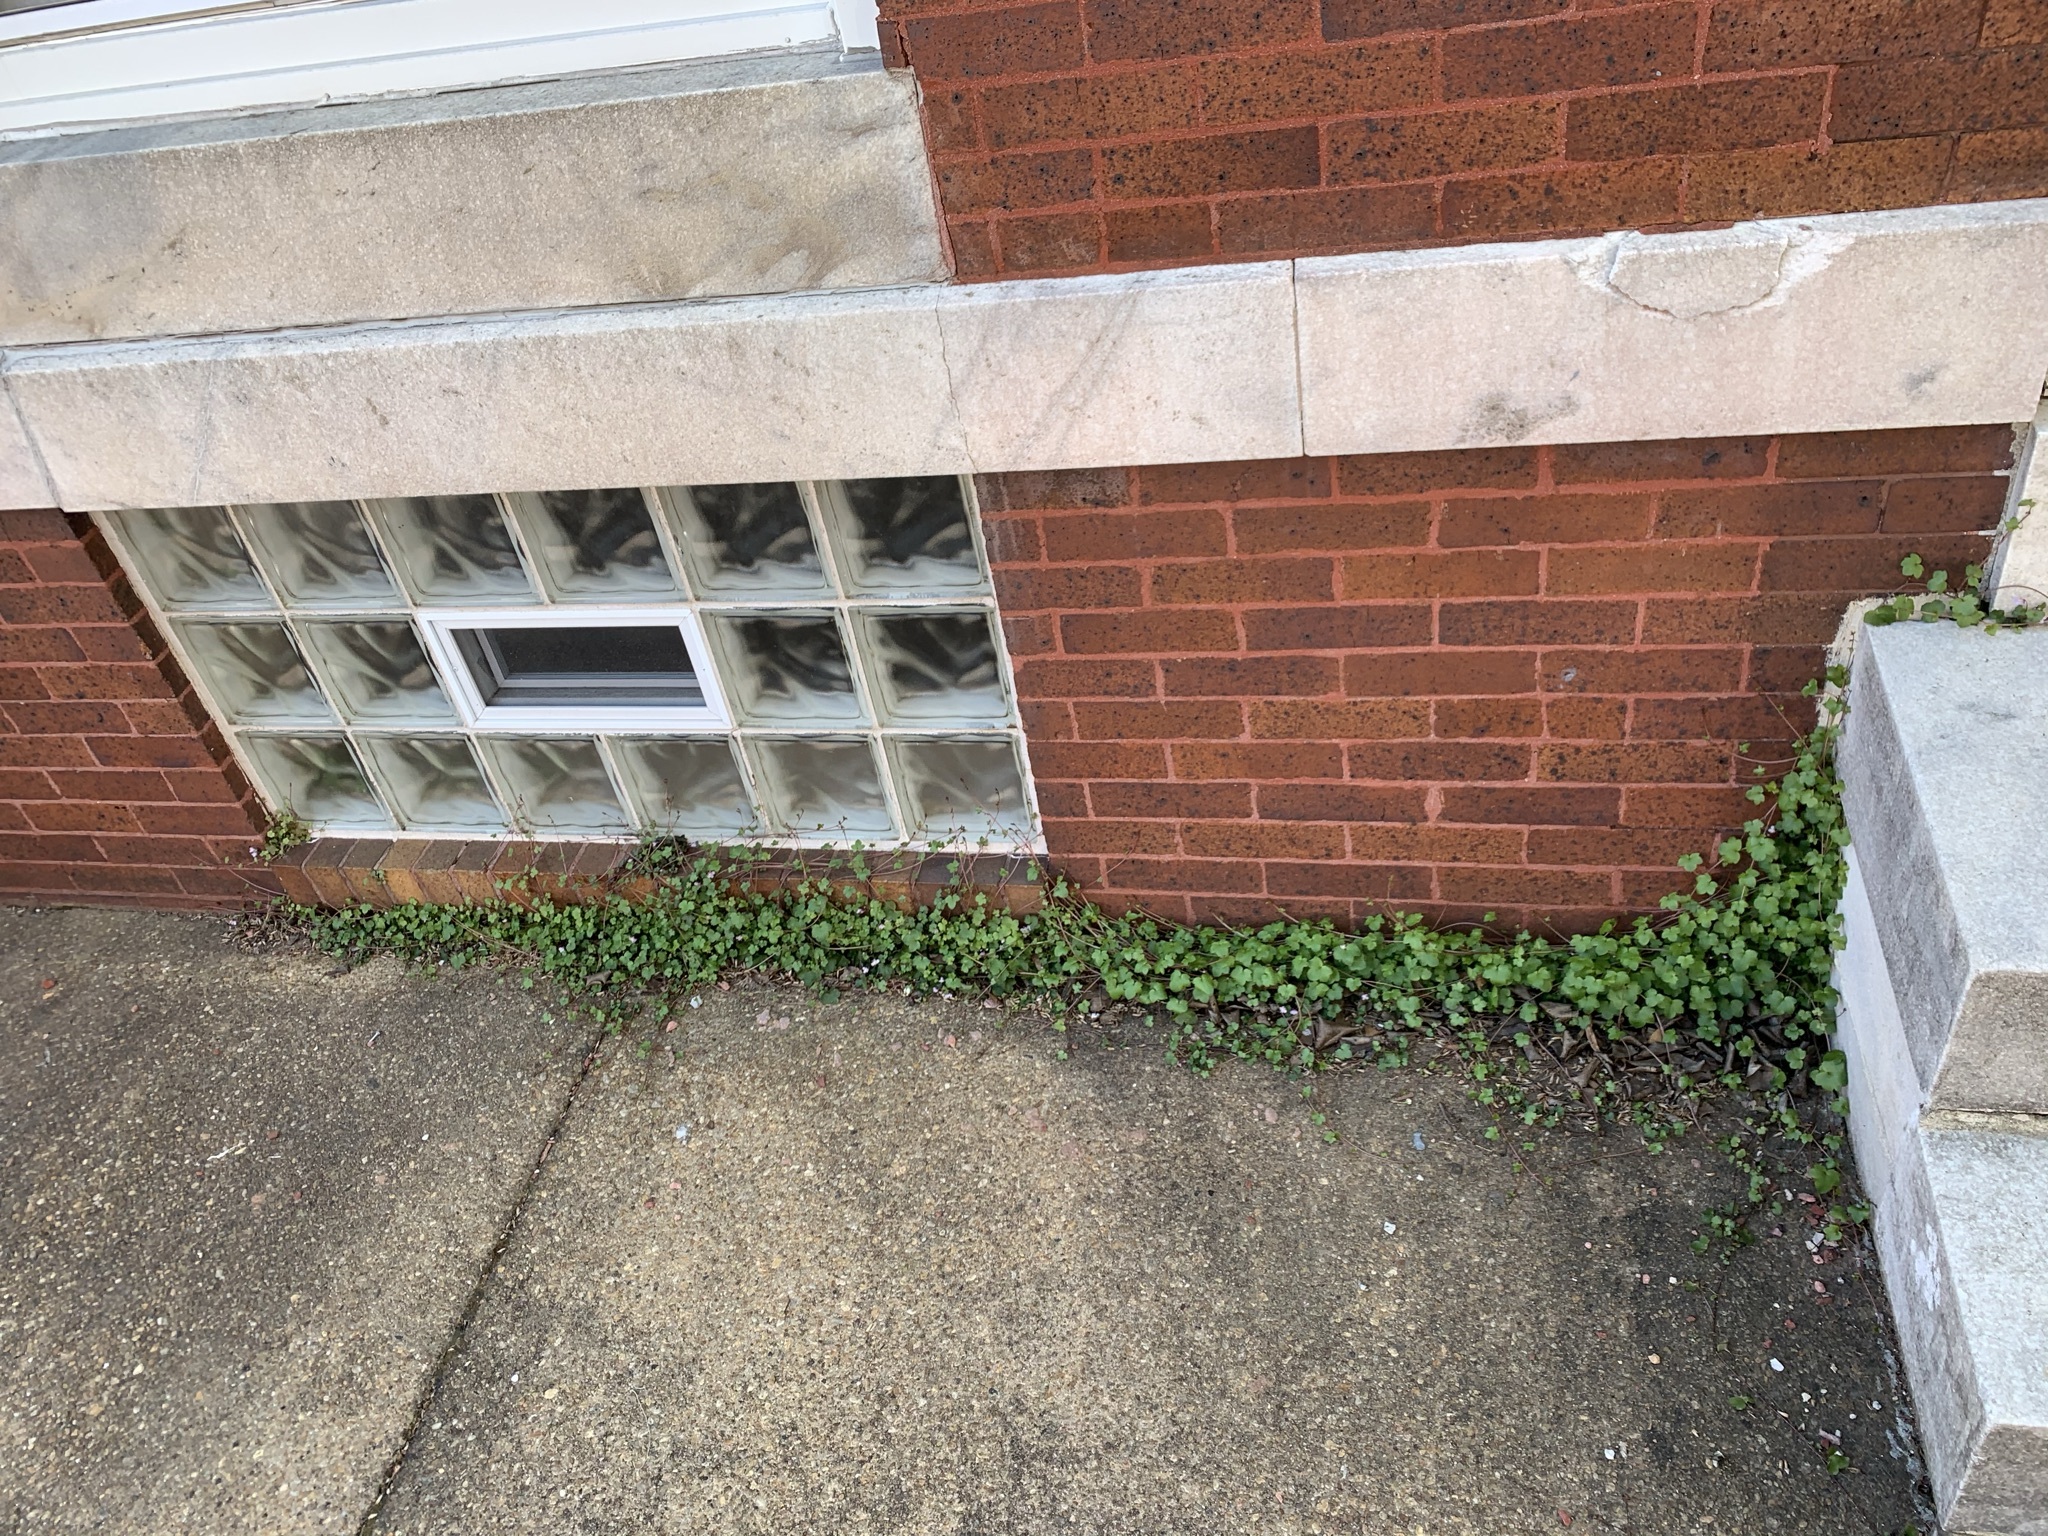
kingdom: Plantae
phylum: Tracheophyta
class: Magnoliopsida
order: Lamiales
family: Plantaginaceae
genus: Cymbalaria
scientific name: Cymbalaria muralis
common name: Ivy-leaved toadflax
